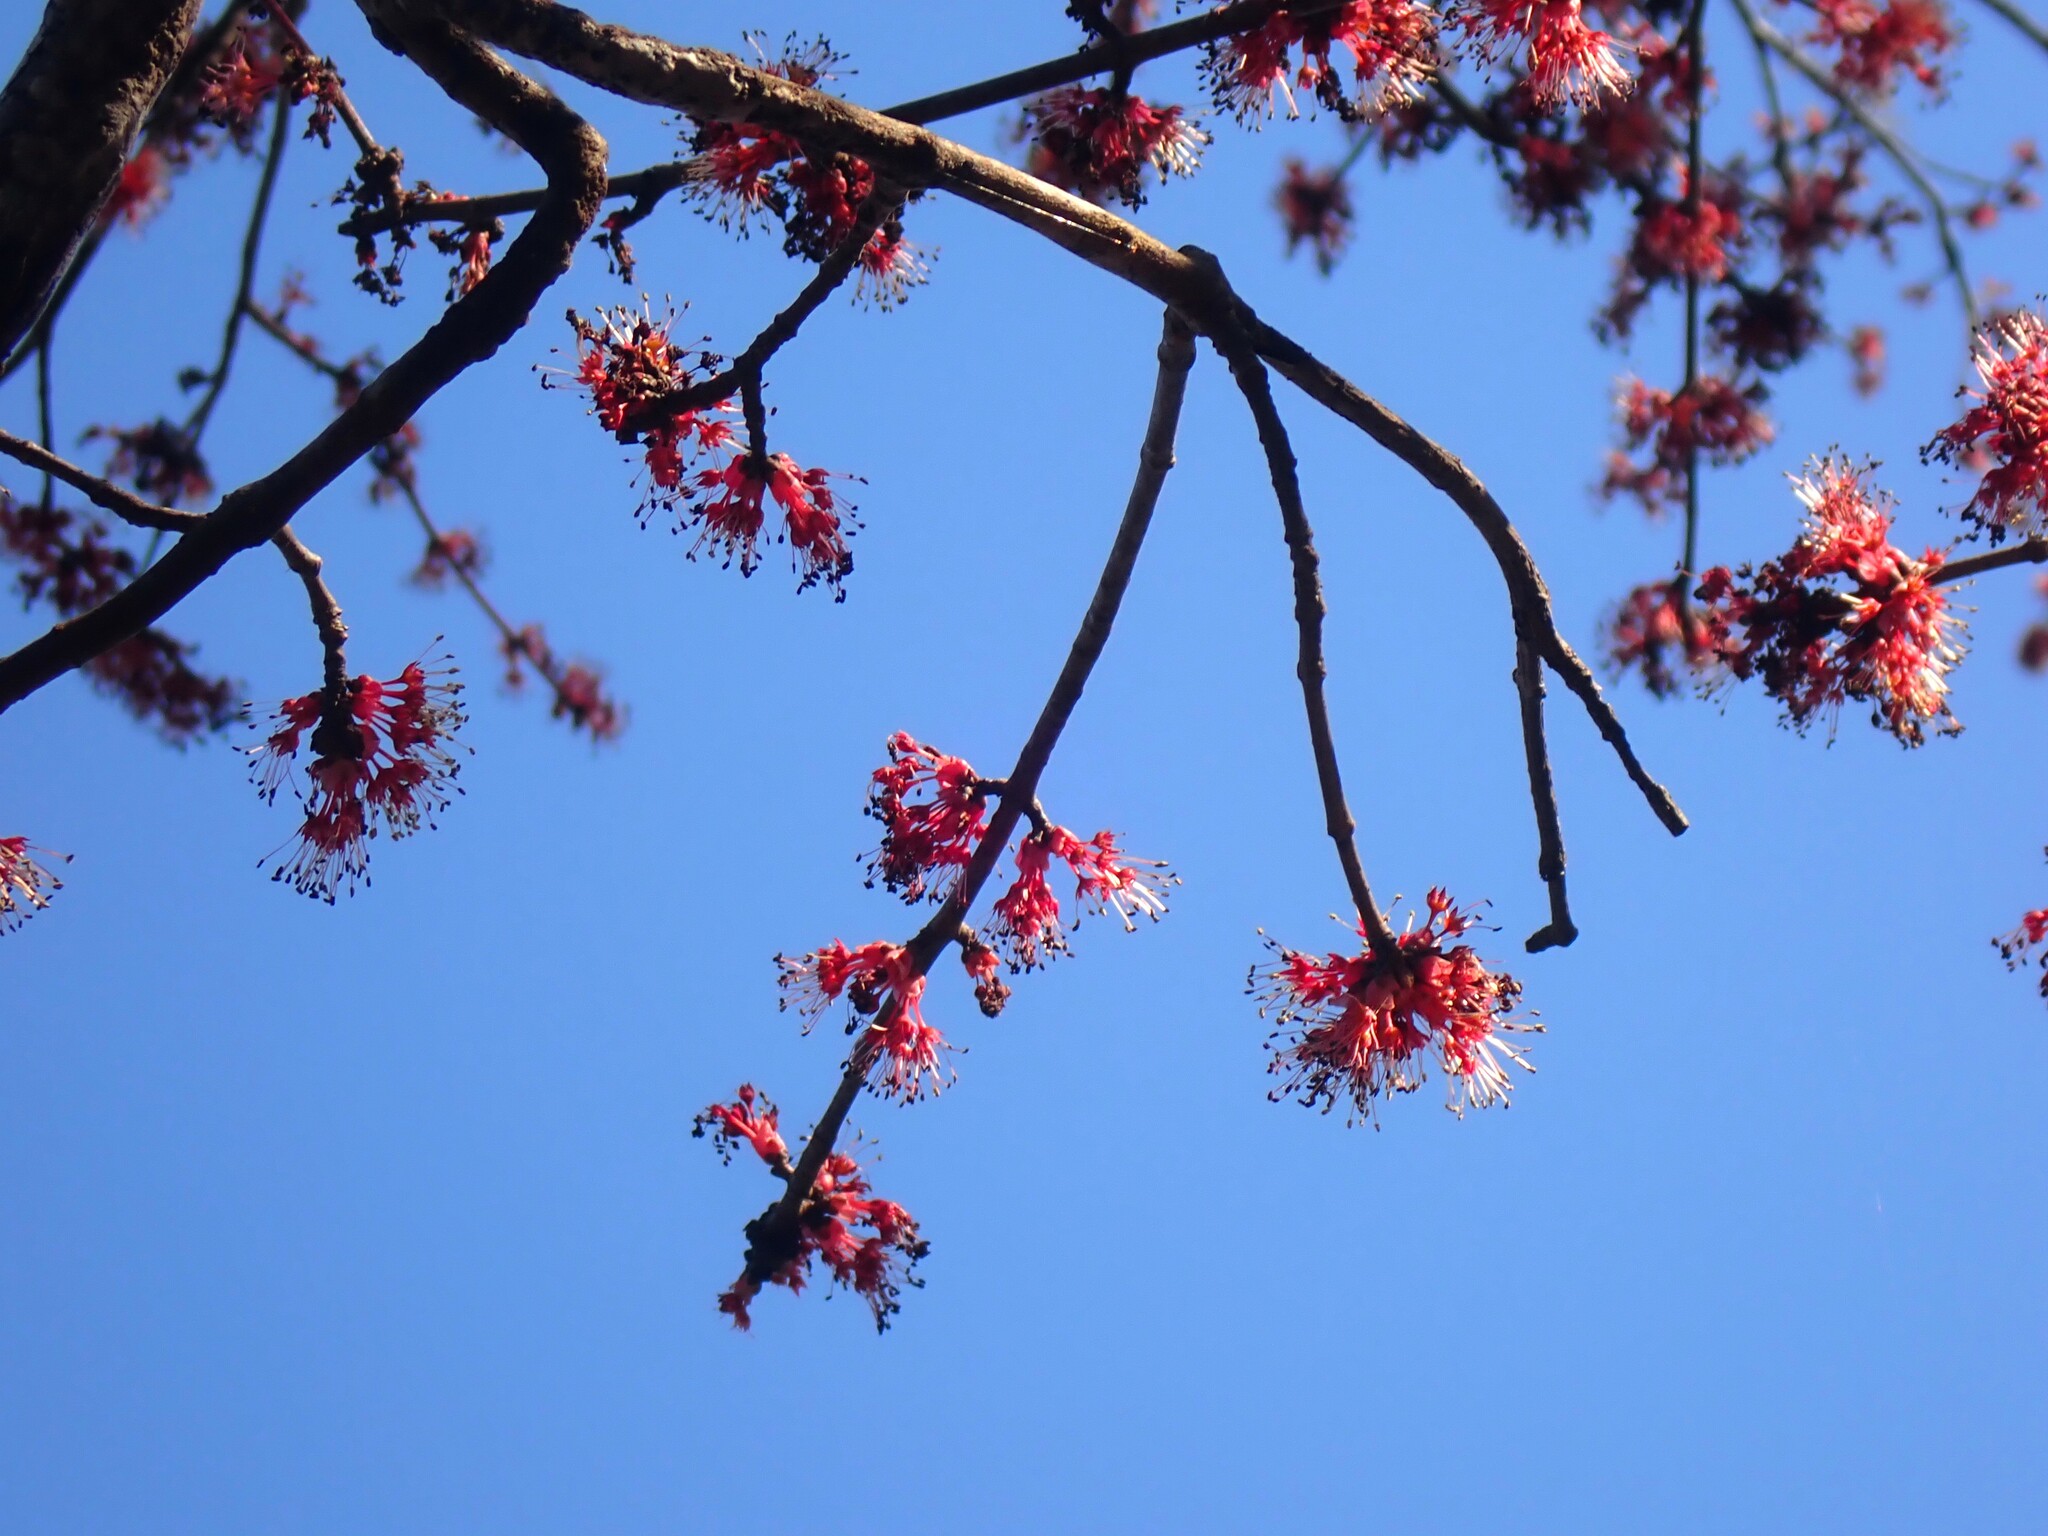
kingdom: Plantae
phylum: Tracheophyta
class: Magnoliopsida
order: Sapindales
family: Sapindaceae
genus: Acer
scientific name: Acer rubrum
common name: Red maple
